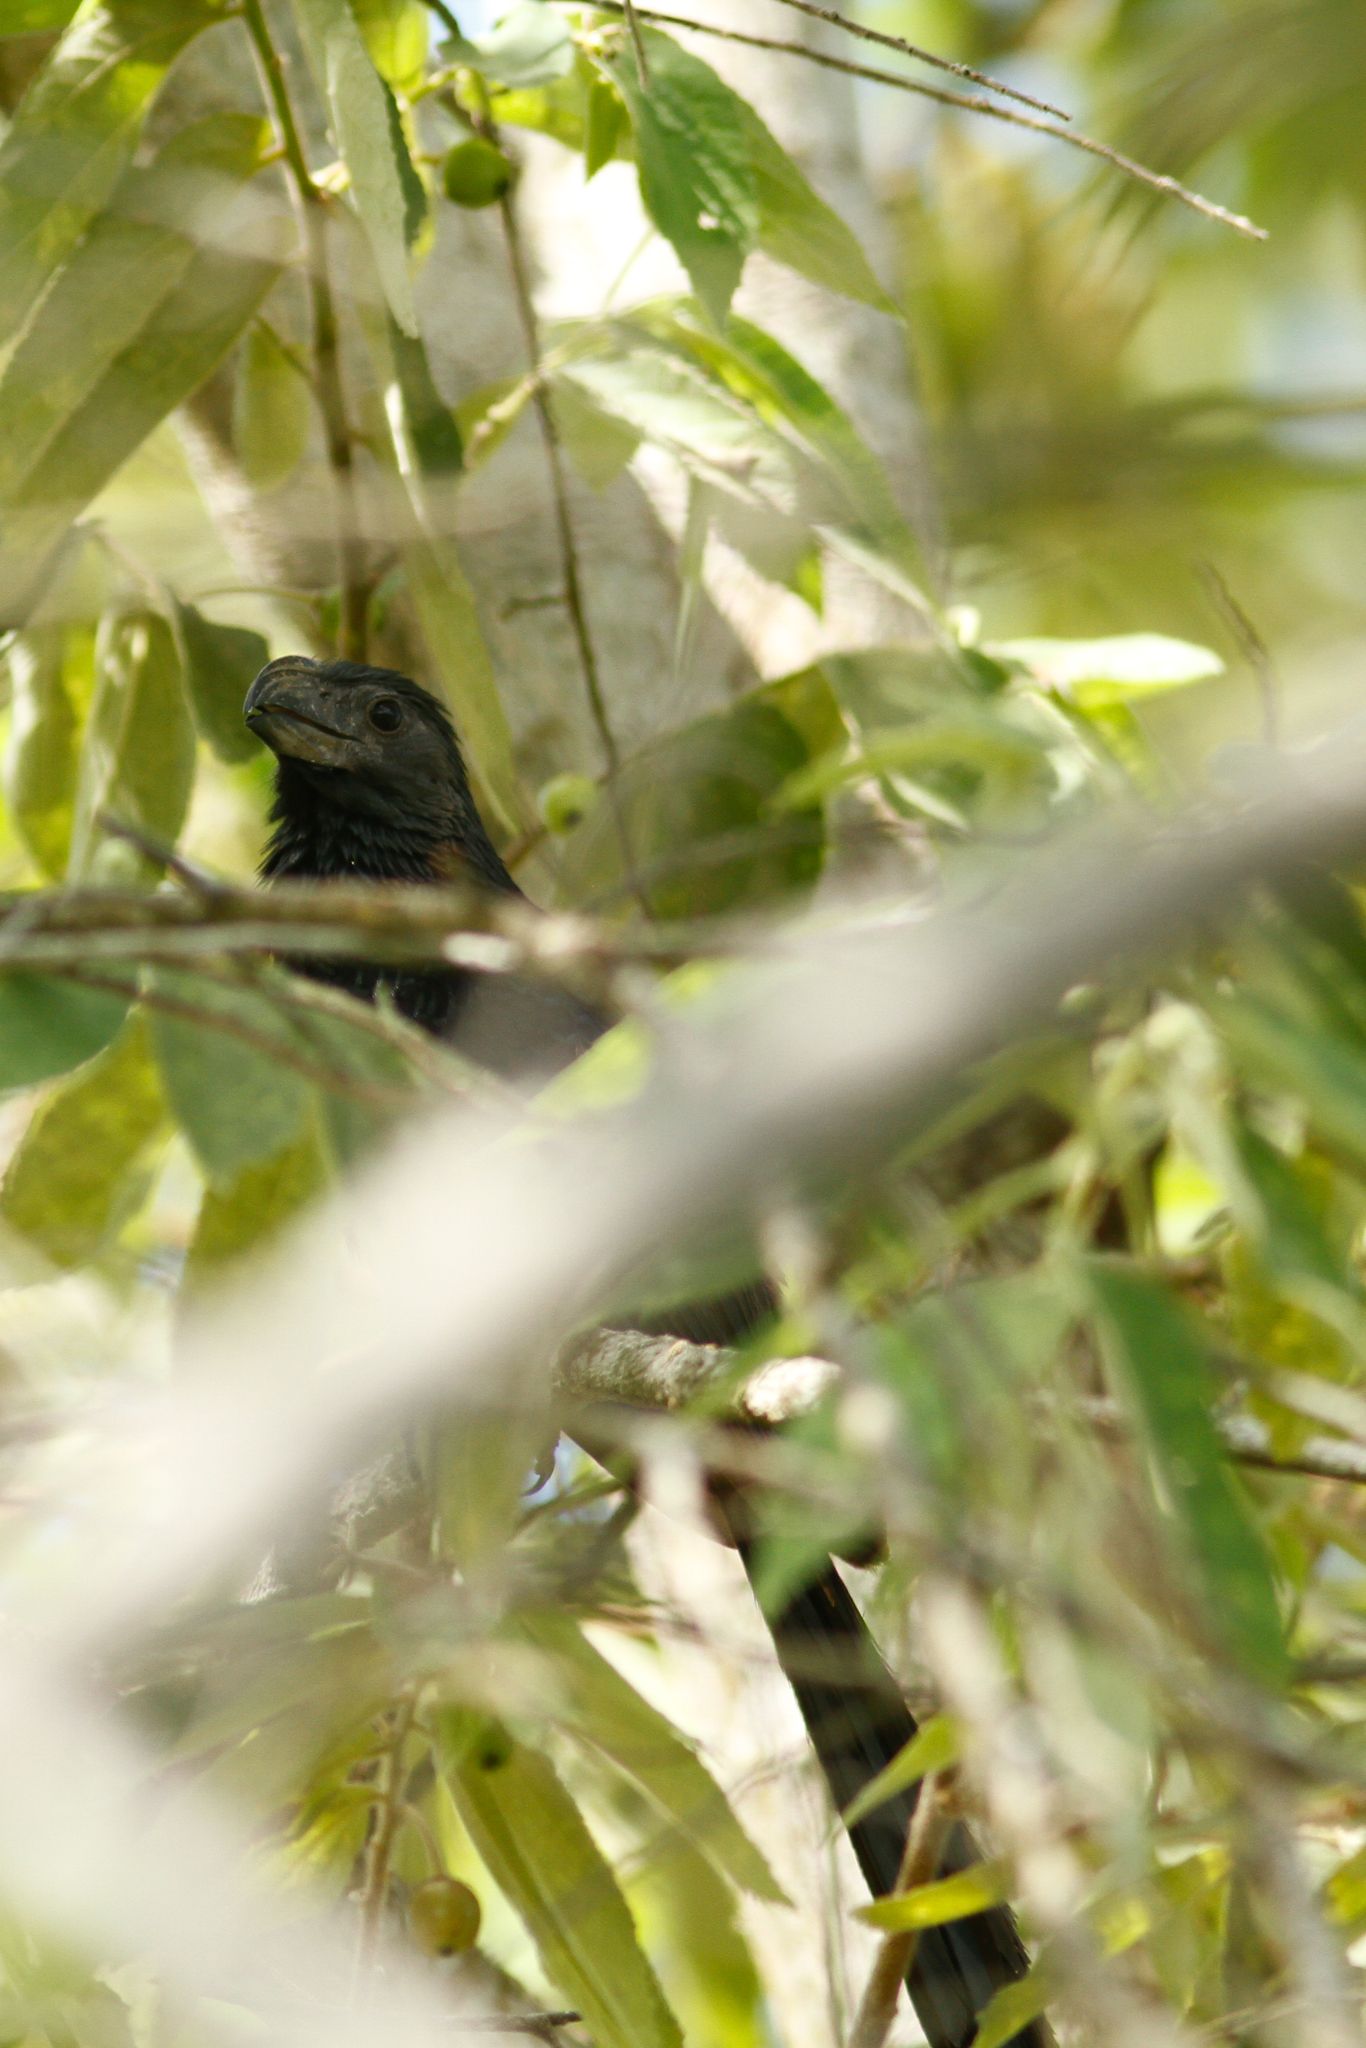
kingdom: Animalia
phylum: Chordata
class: Aves
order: Cuculiformes
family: Cuculidae
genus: Crotophaga
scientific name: Crotophaga sulcirostris
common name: Groove-billed ani
